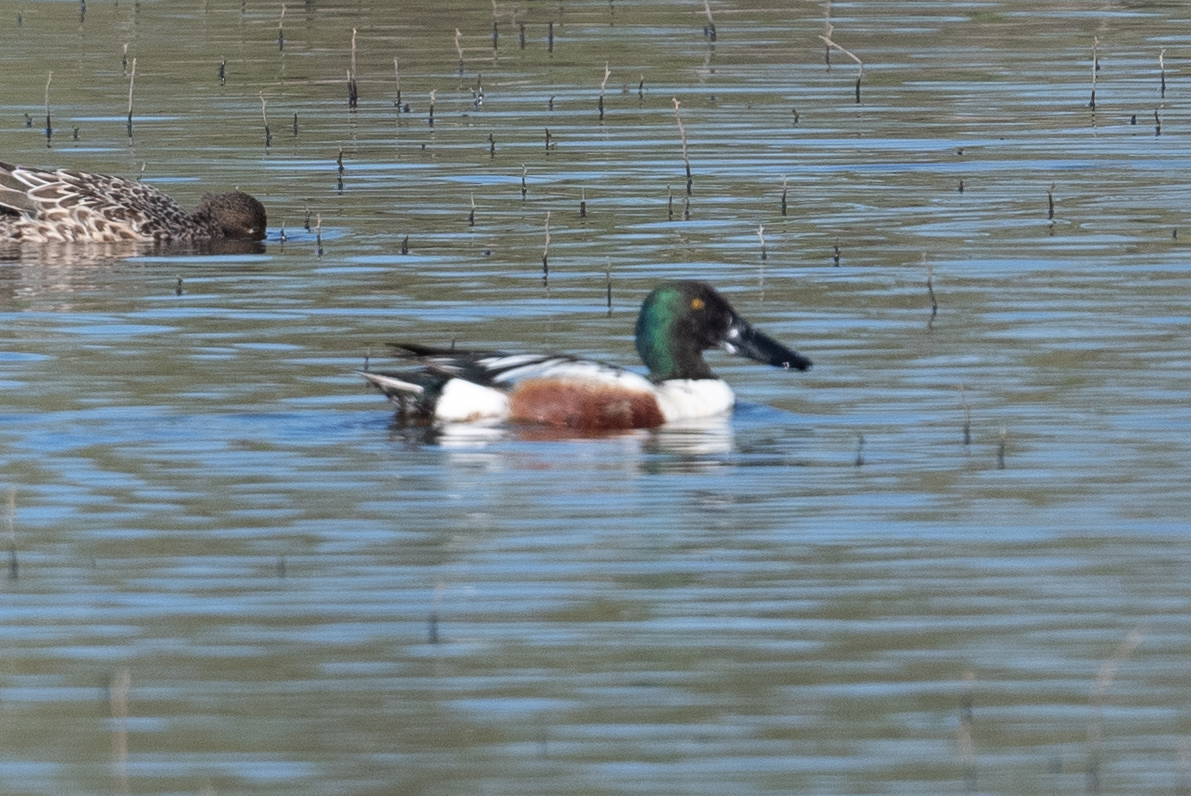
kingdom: Animalia
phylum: Chordata
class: Aves
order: Anseriformes
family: Anatidae
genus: Spatula
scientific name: Spatula clypeata
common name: Northern shoveler
